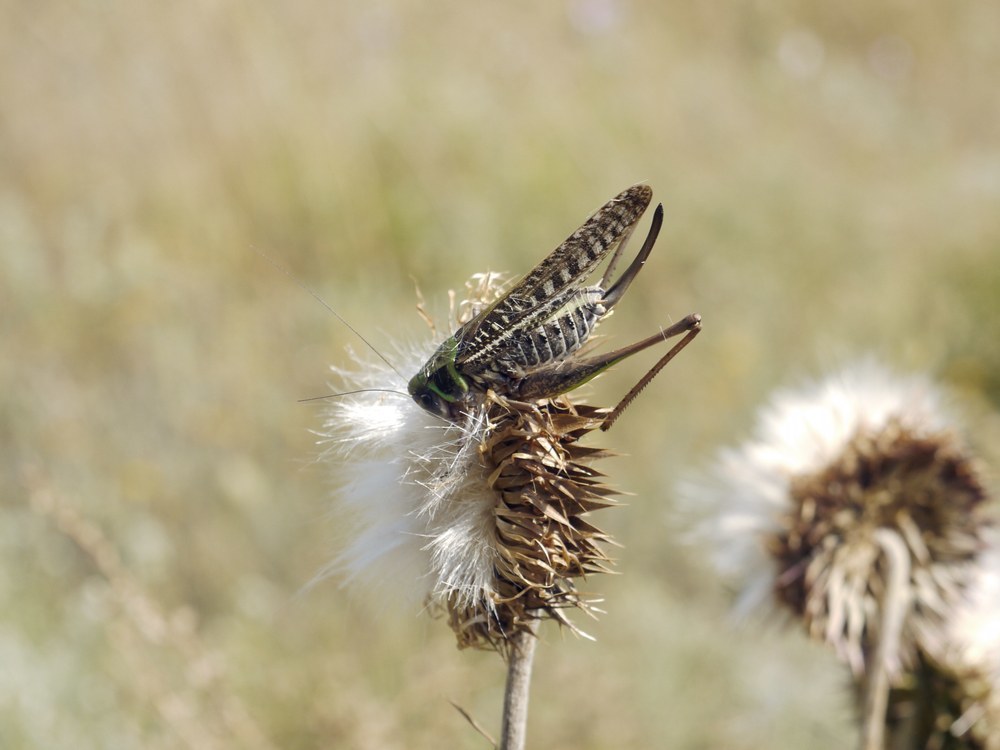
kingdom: Animalia
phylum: Arthropoda
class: Insecta
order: Orthoptera
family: Tettigoniidae
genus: Decticus
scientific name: Decticus verrucivorus
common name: Wart-biter
